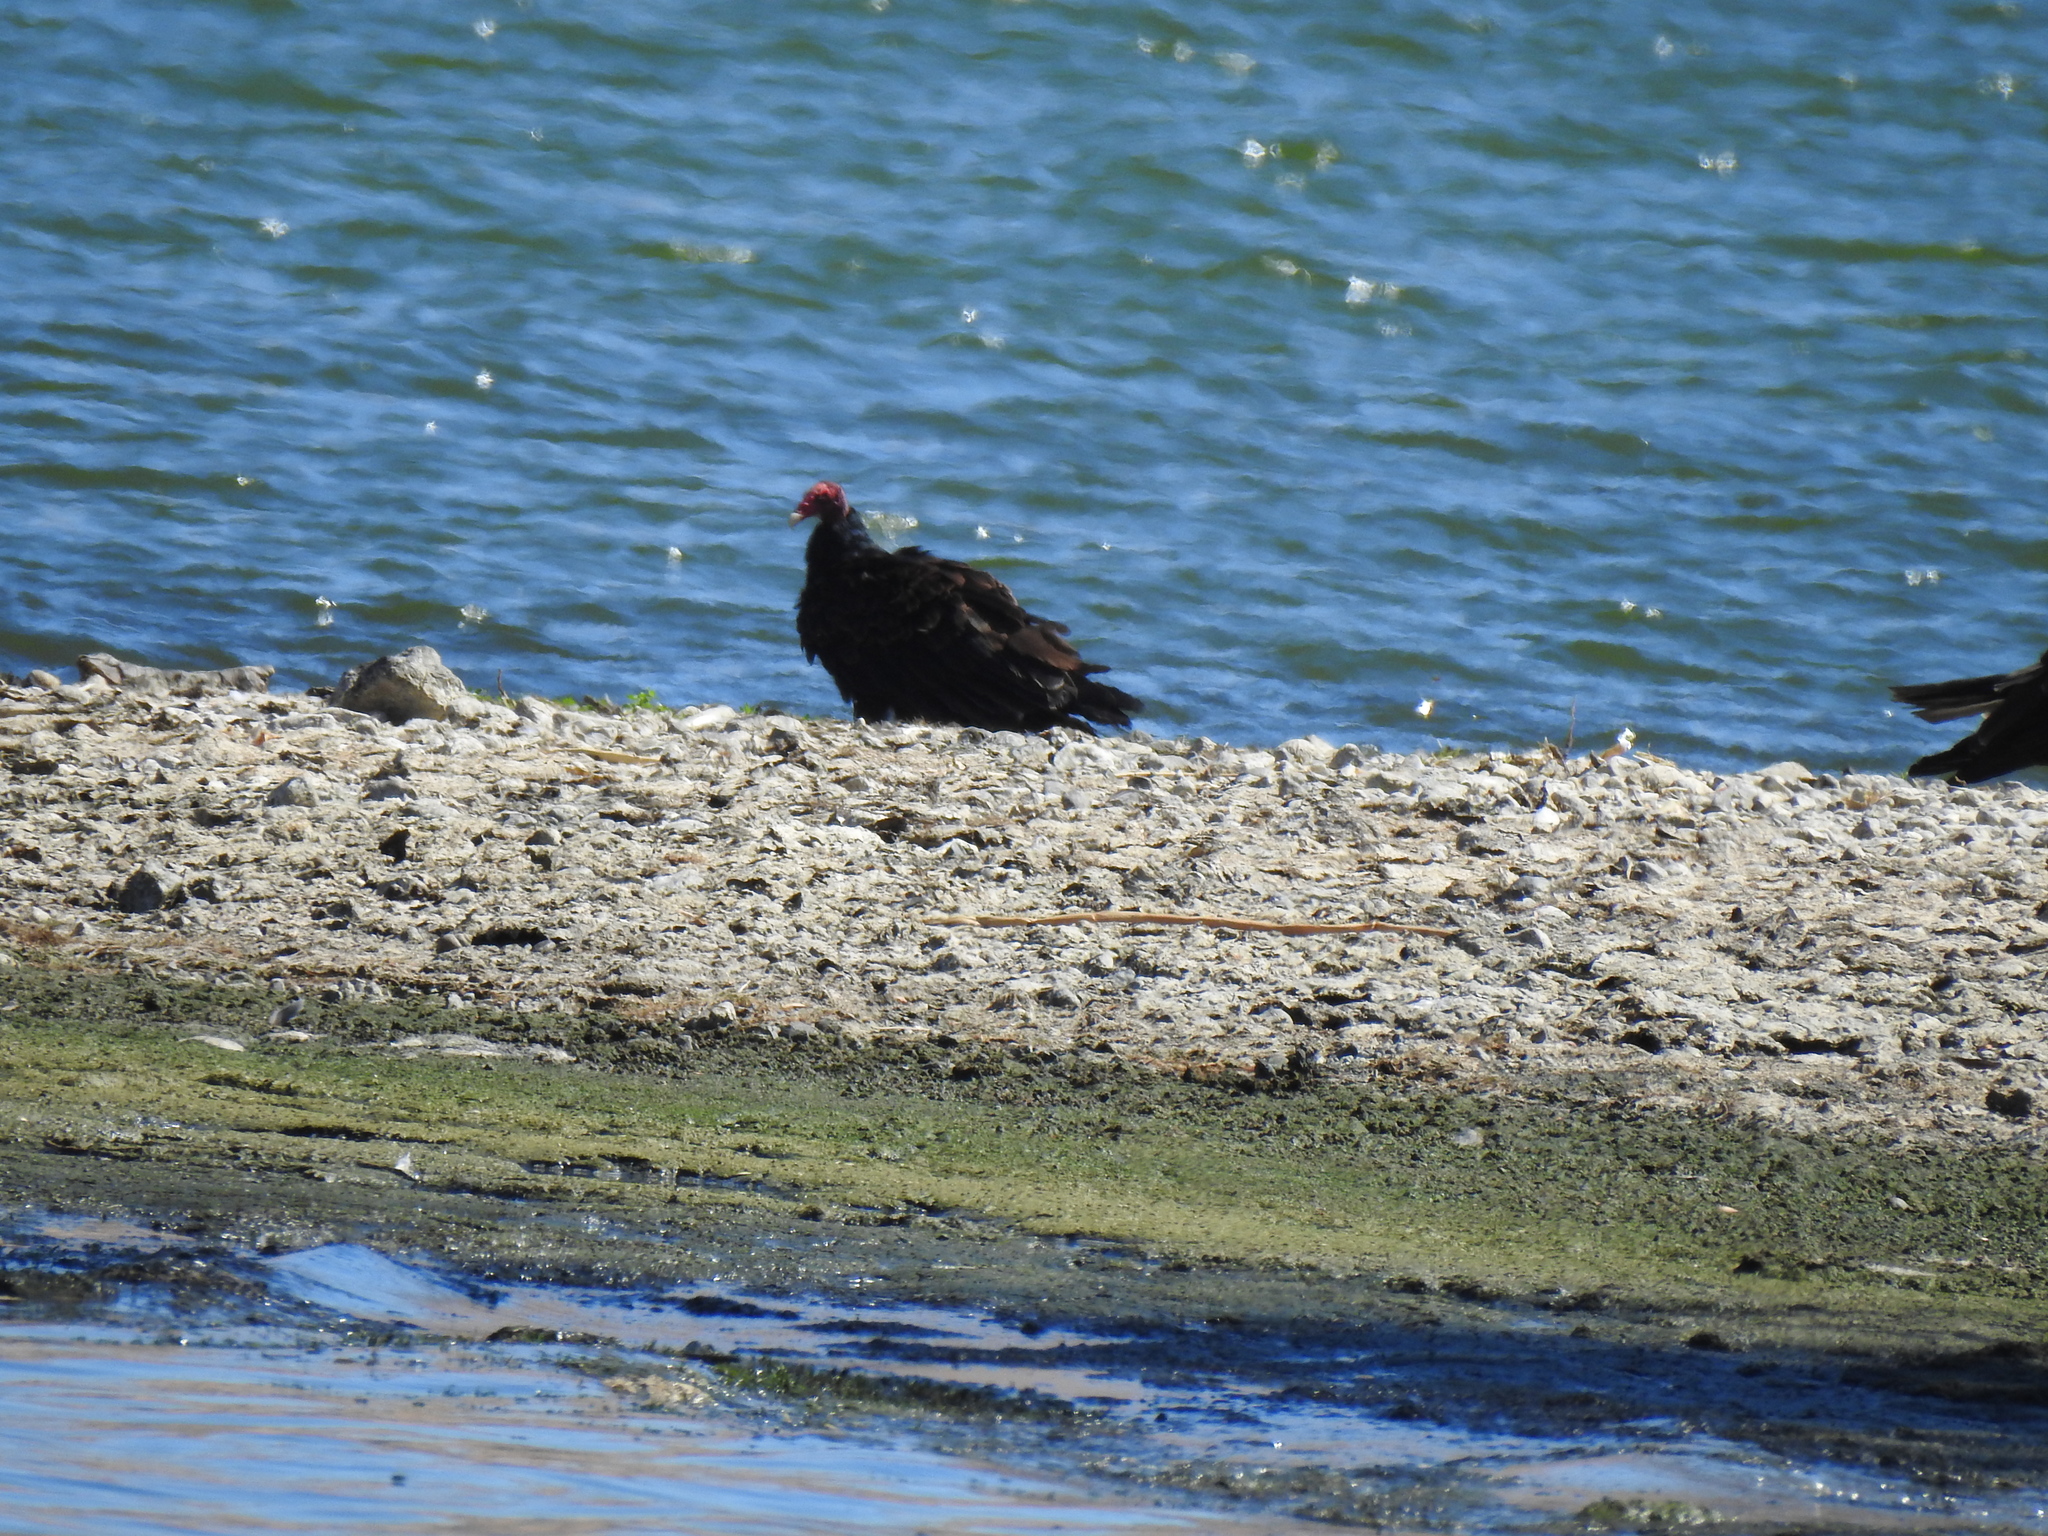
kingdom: Animalia
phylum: Chordata
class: Aves
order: Accipitriformes
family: Cathartidae
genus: Cathartes
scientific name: Cathartes aura
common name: Turkey vulture
